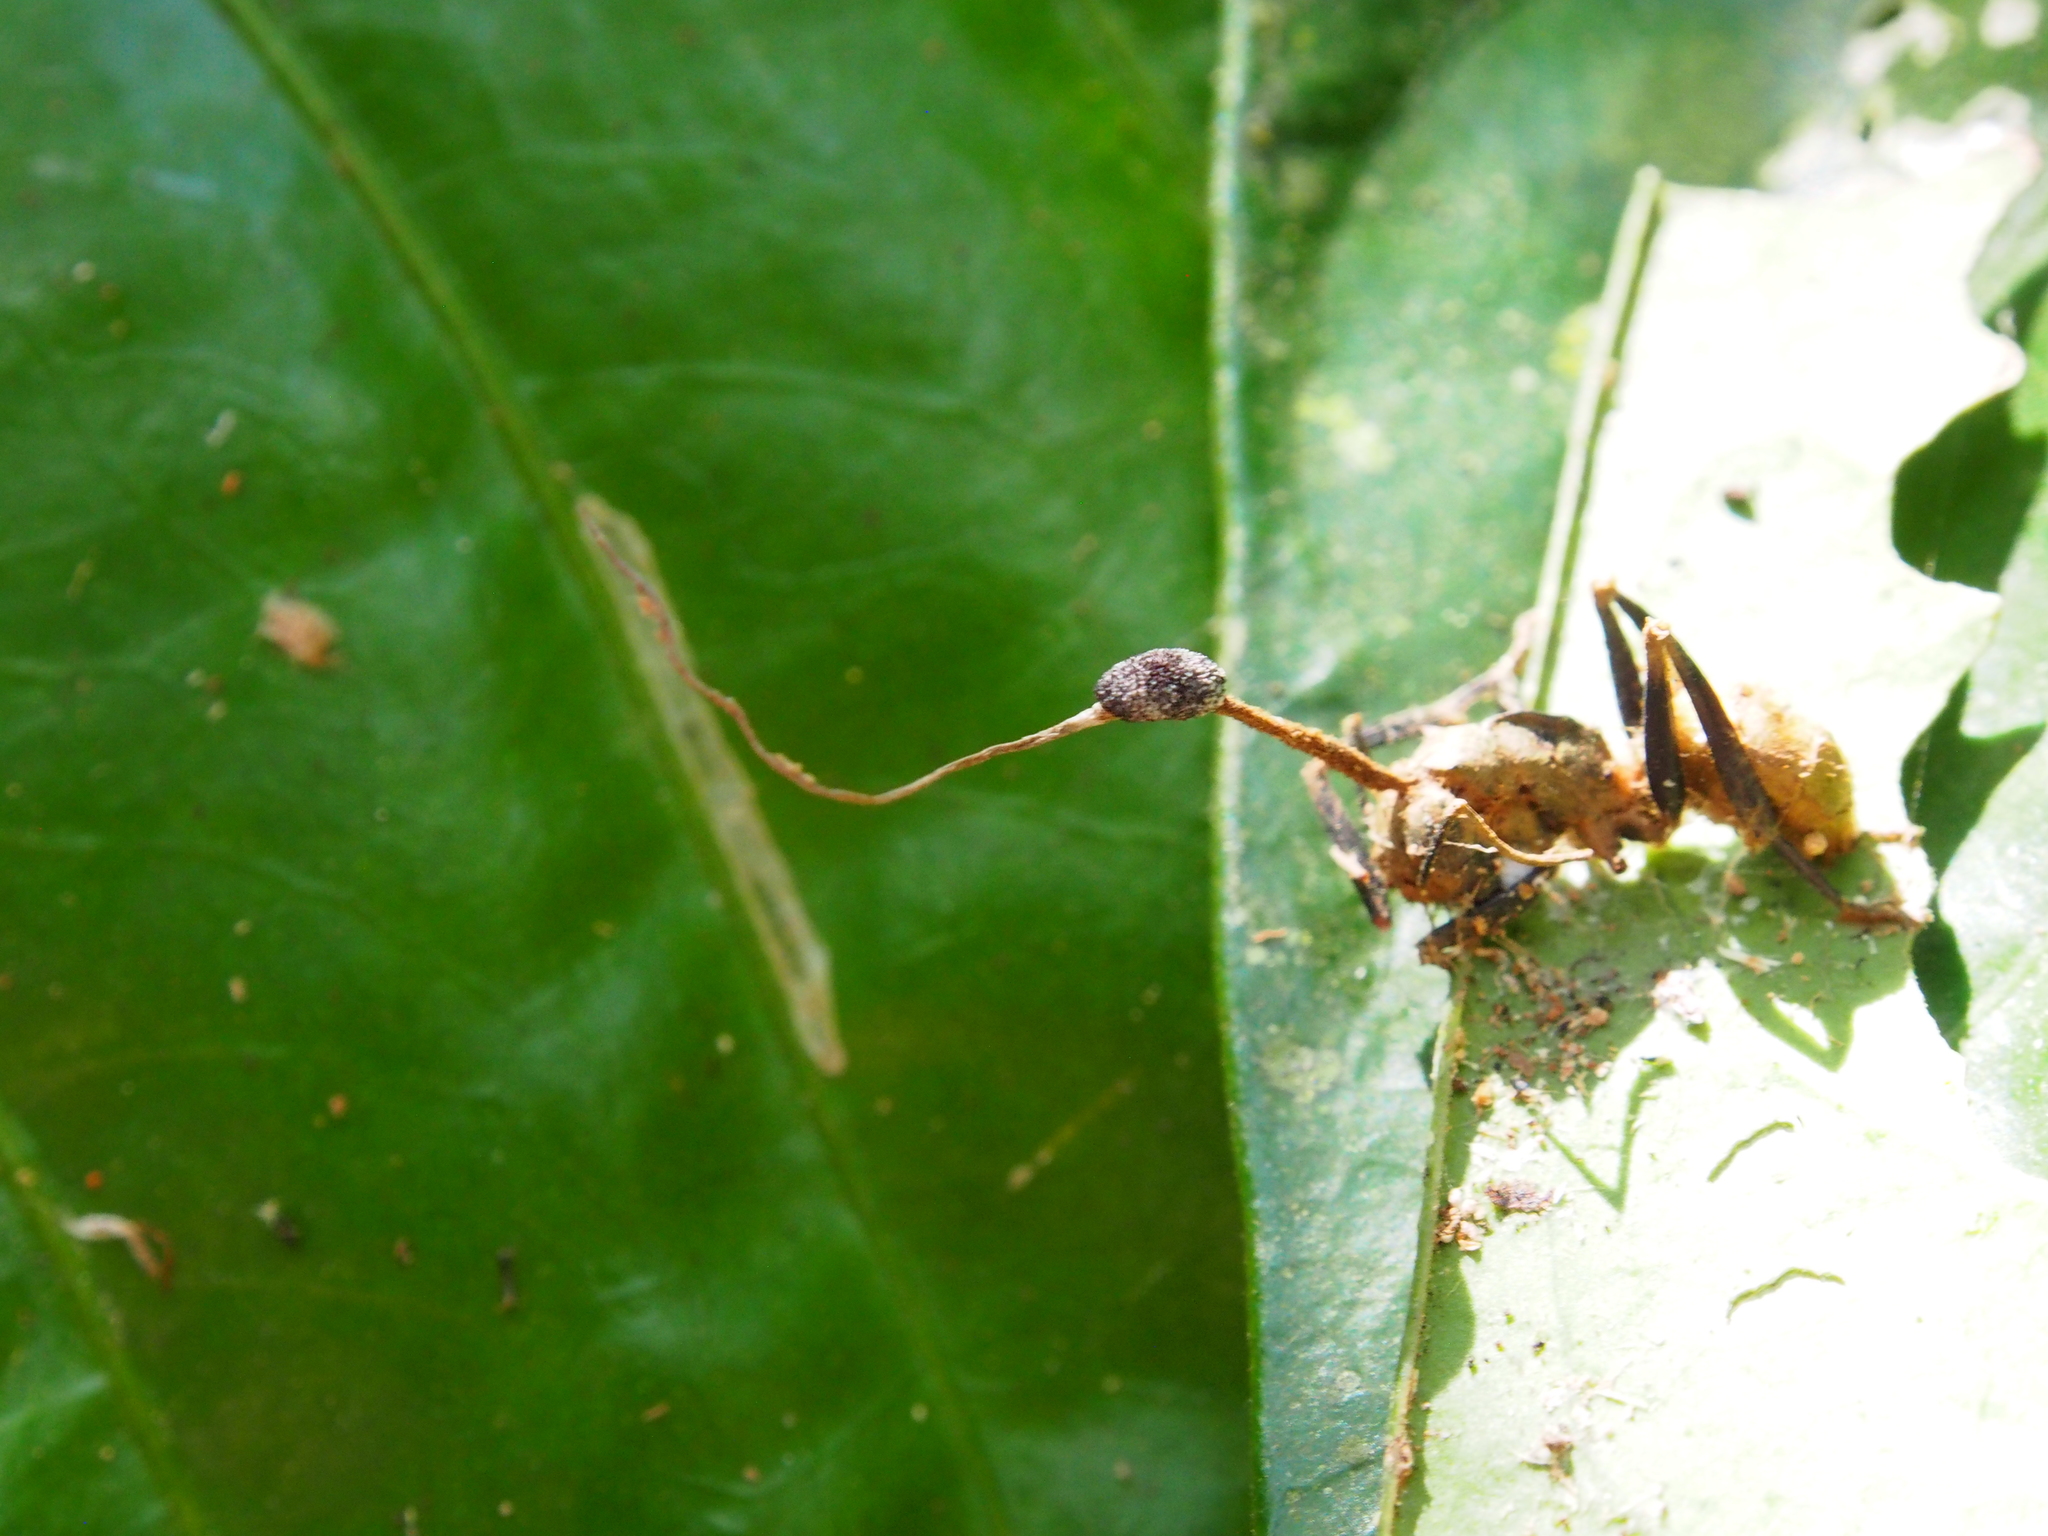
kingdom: Animalia
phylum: Arthropoda
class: Insecta
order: Hymenoptera
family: Formicidae
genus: Camponotus
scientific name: Camponotus sericeiventris
